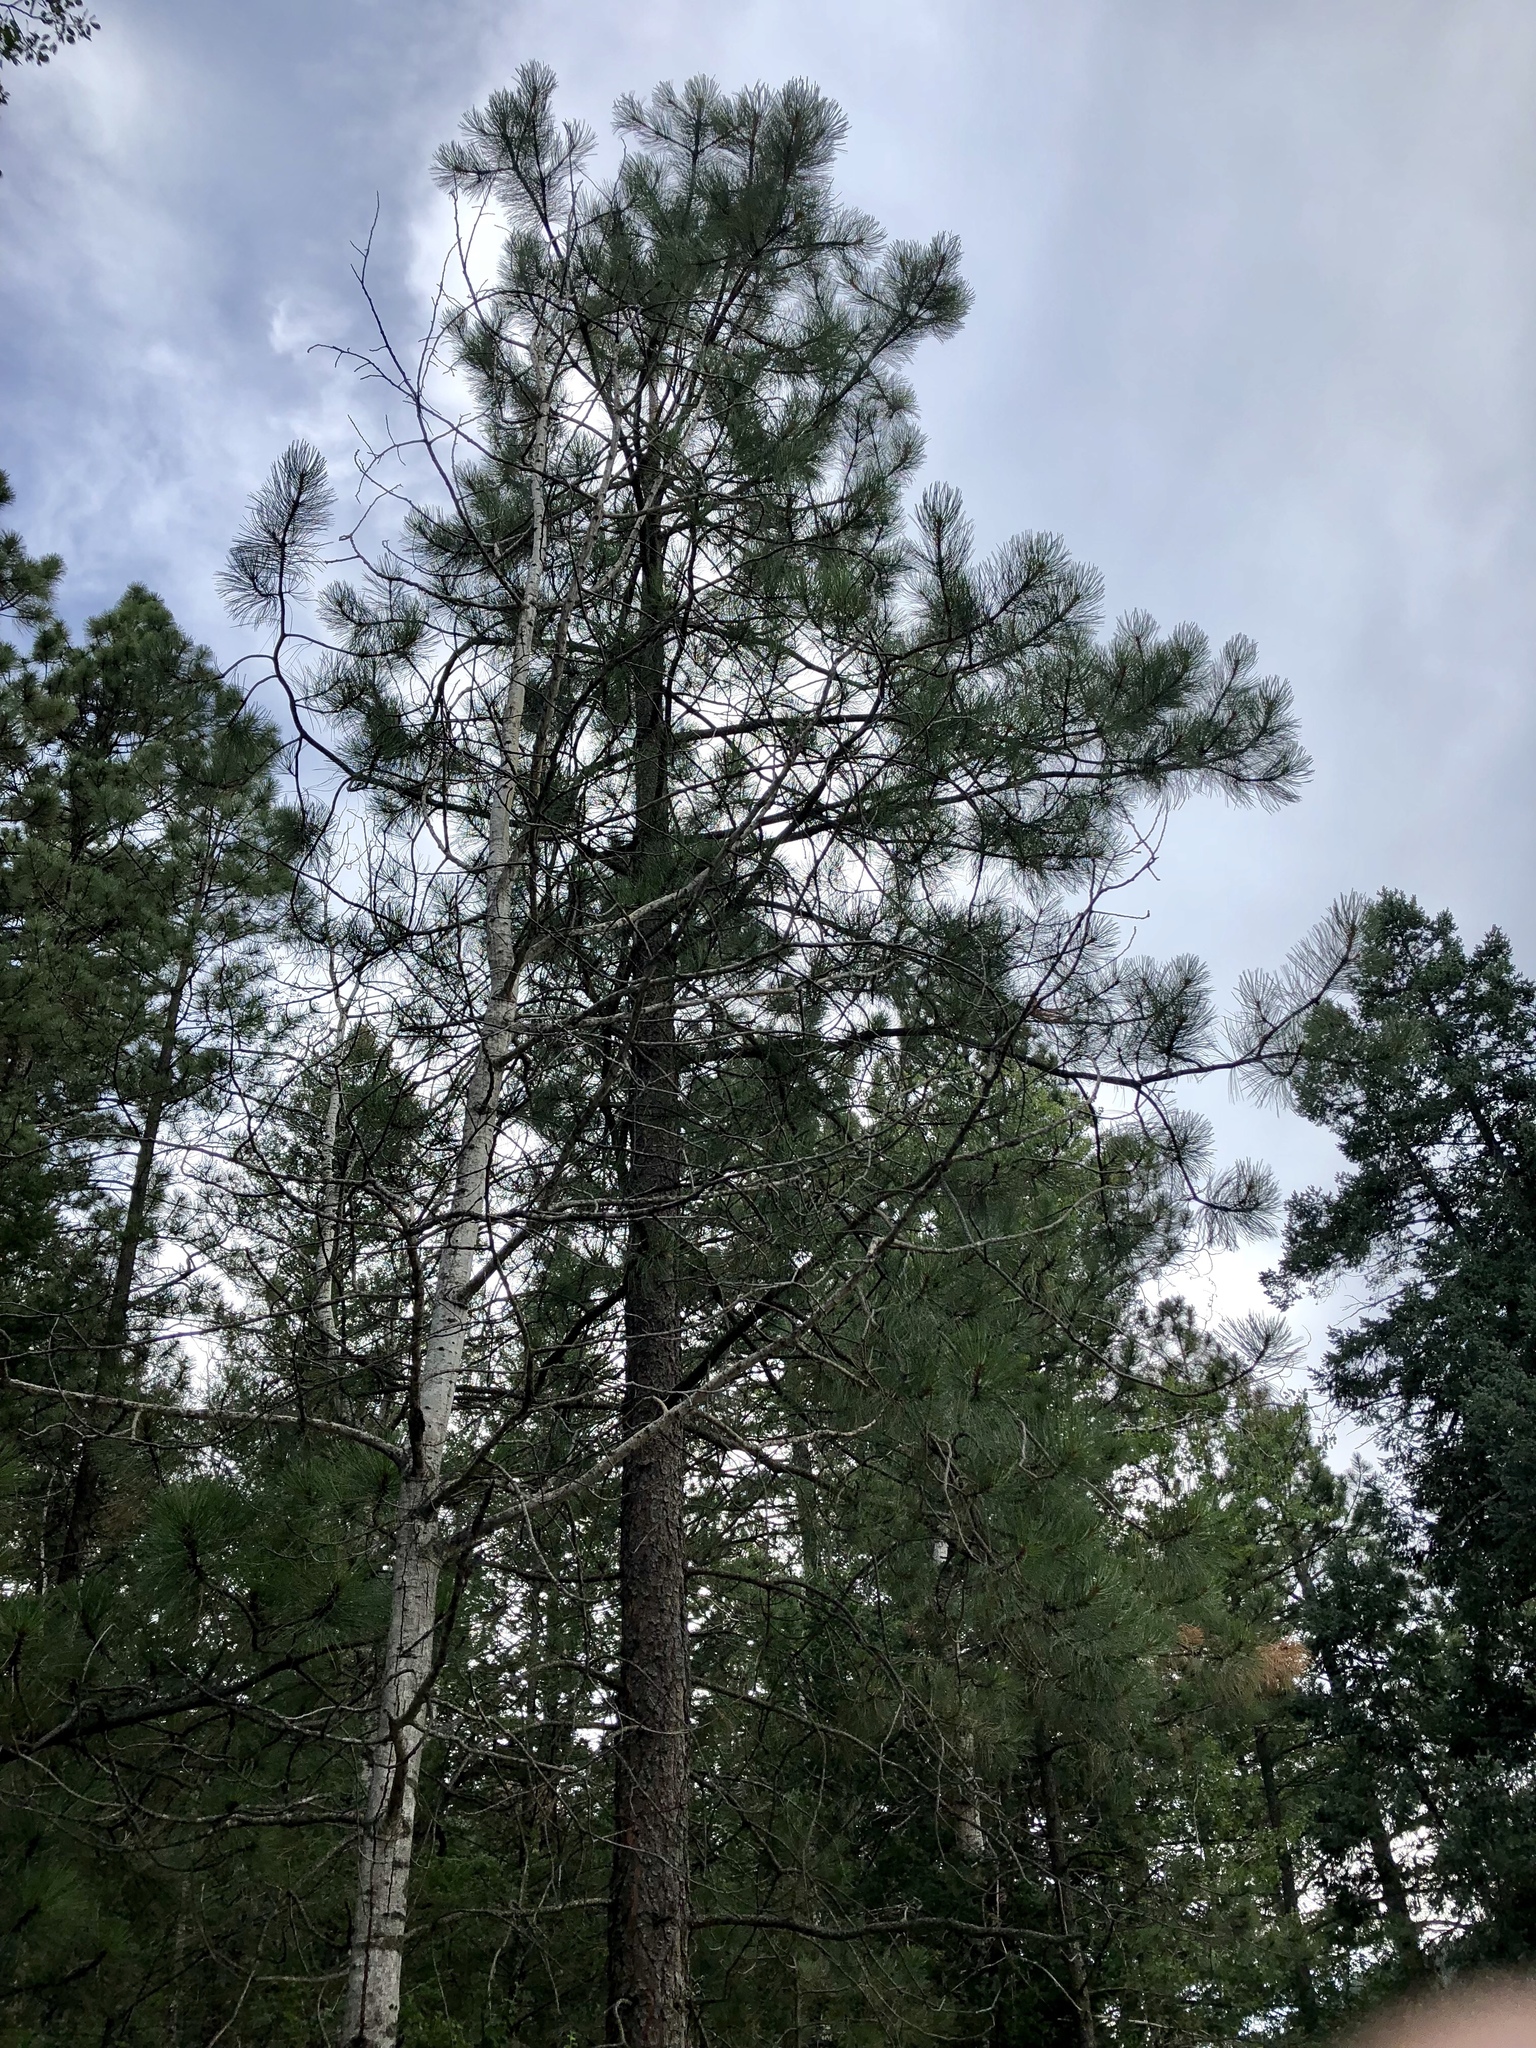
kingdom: Plantae
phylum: Tracheophyta
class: Pinopsida
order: Pinales
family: Pinaceae
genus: Pinus
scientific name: Pinus ponderosa
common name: Western yellow-pine
